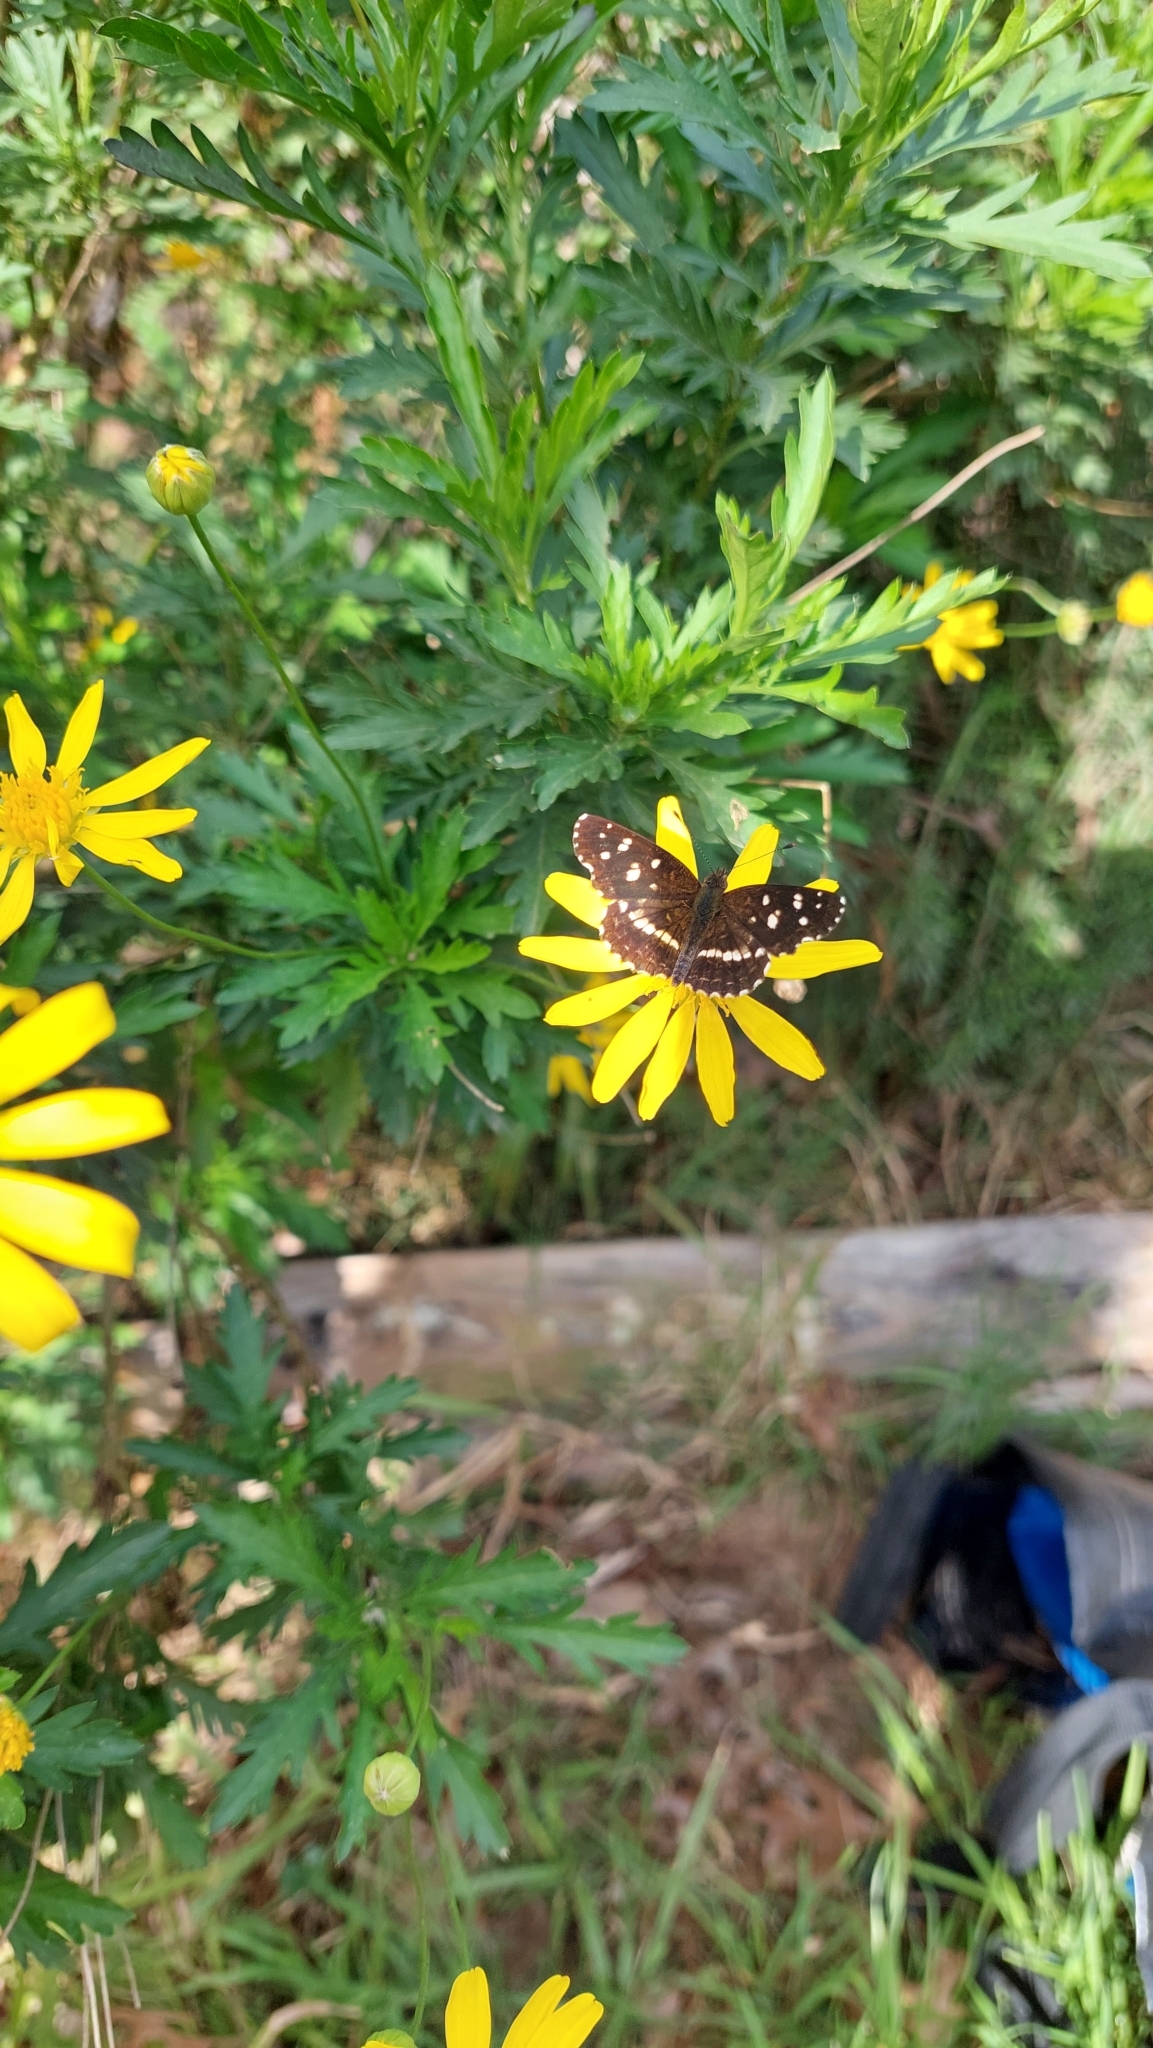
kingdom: Animalia
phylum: Arthropoda
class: Insecta
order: Lepidoptera
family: Nymphalidae
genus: Ortilia
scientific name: Ortilia ithra
